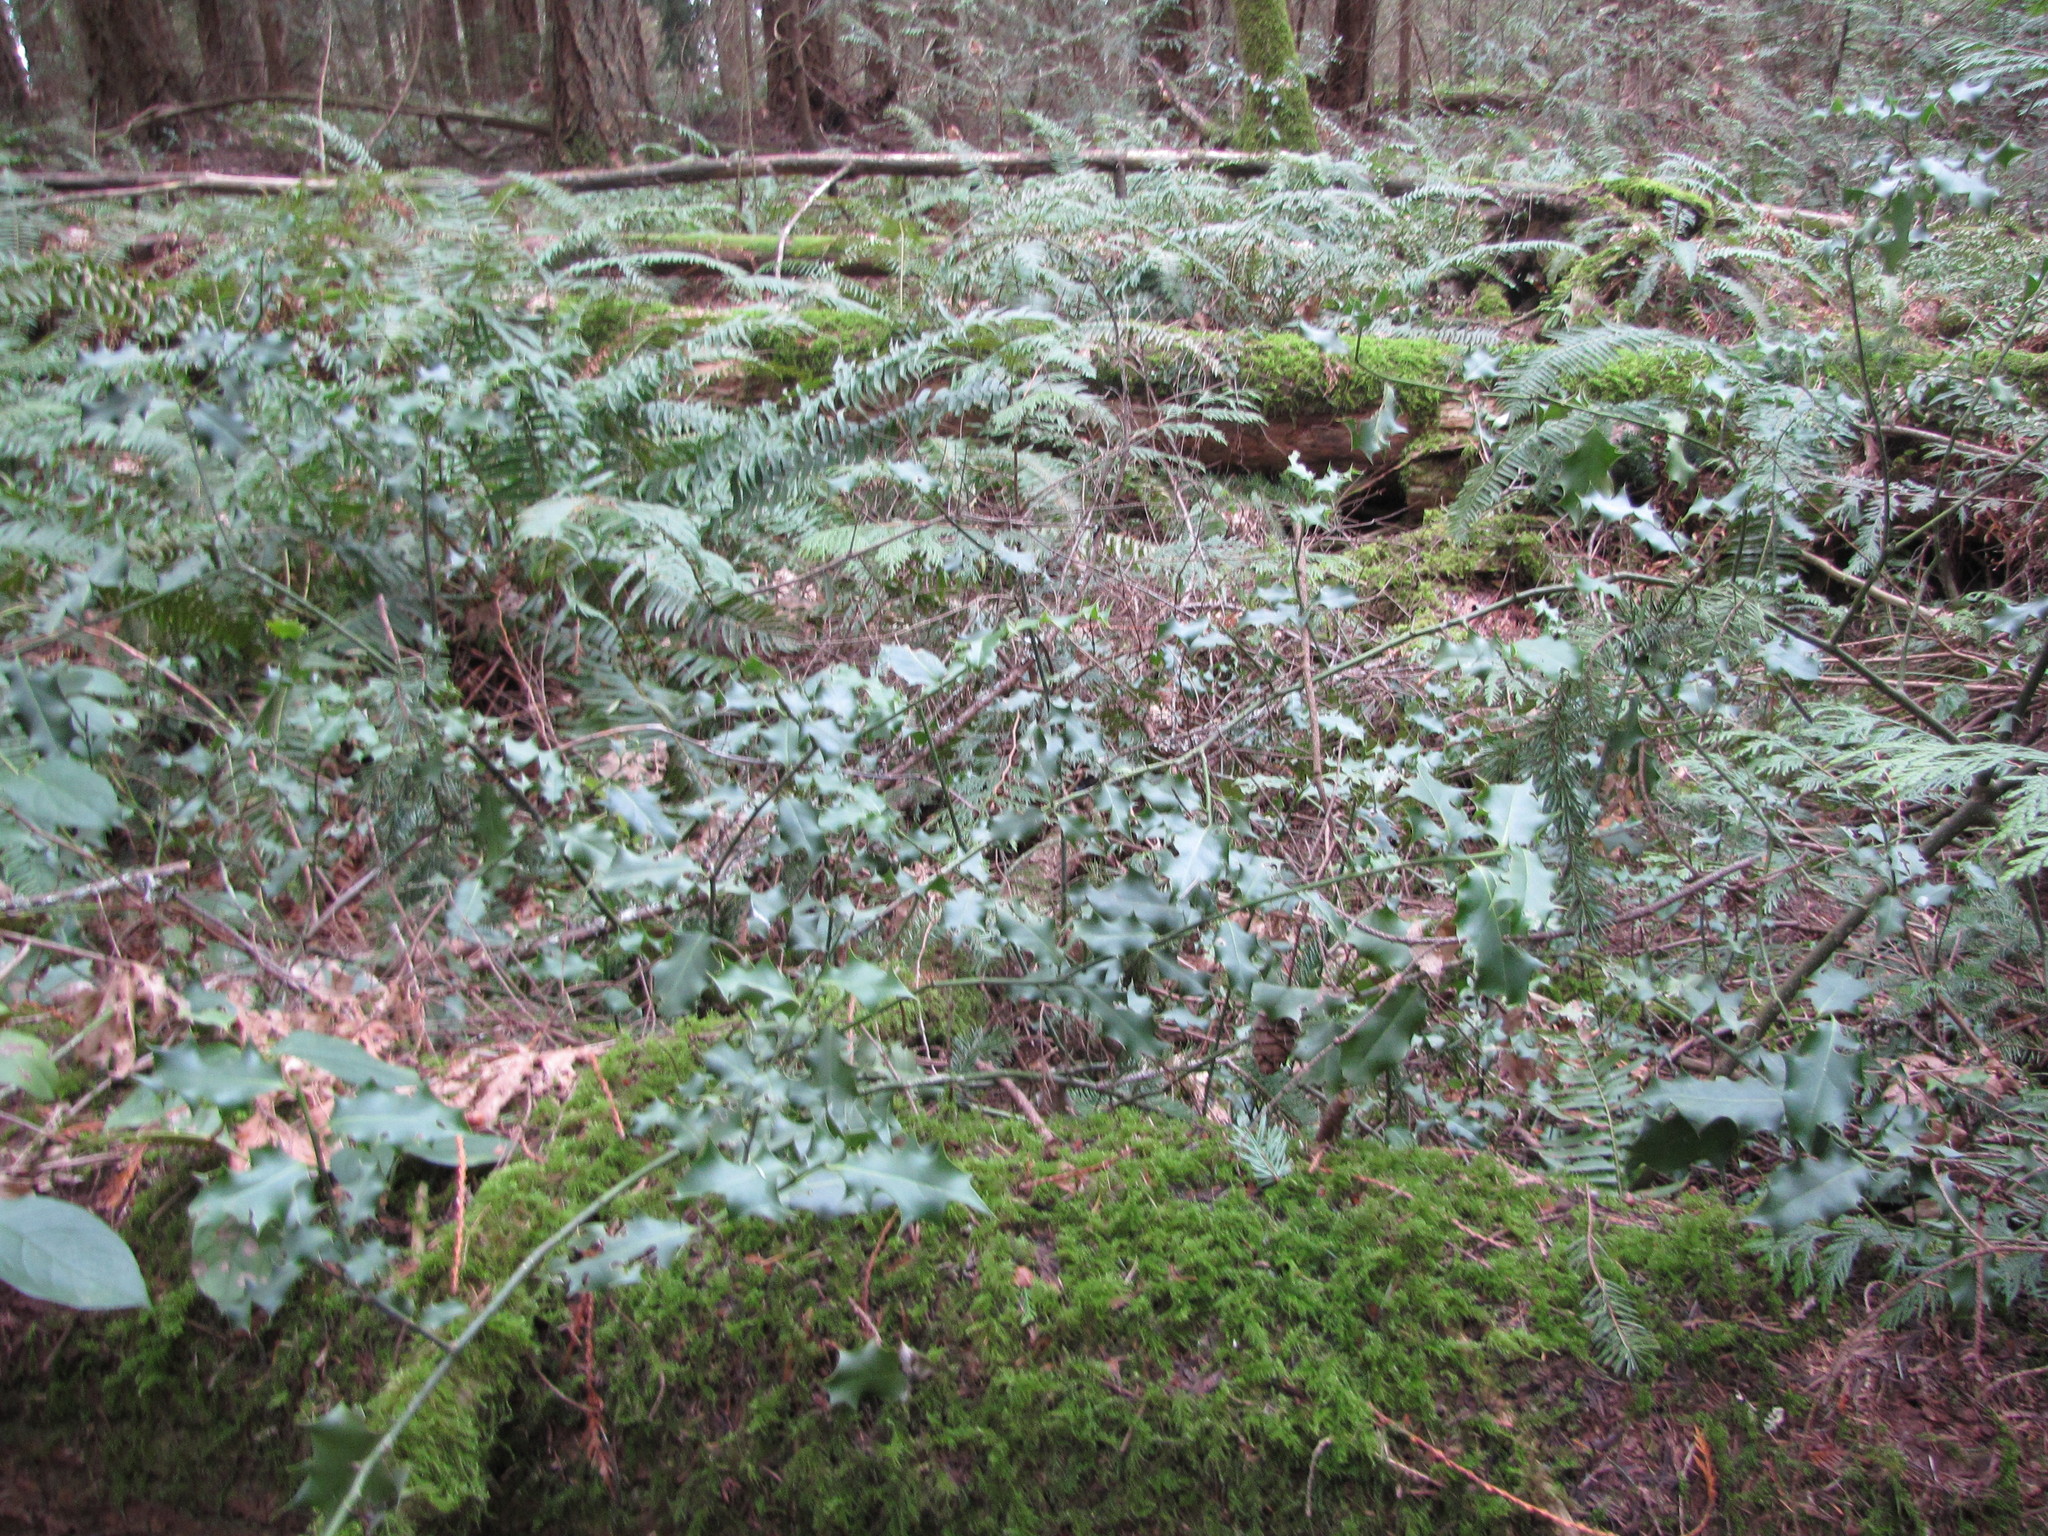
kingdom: Plantae
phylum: Tracheophyta
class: Magnoliopsida
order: Aquifoliales
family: Aquifoliaceae
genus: Ilex
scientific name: Ilex aquifolium
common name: English holly
